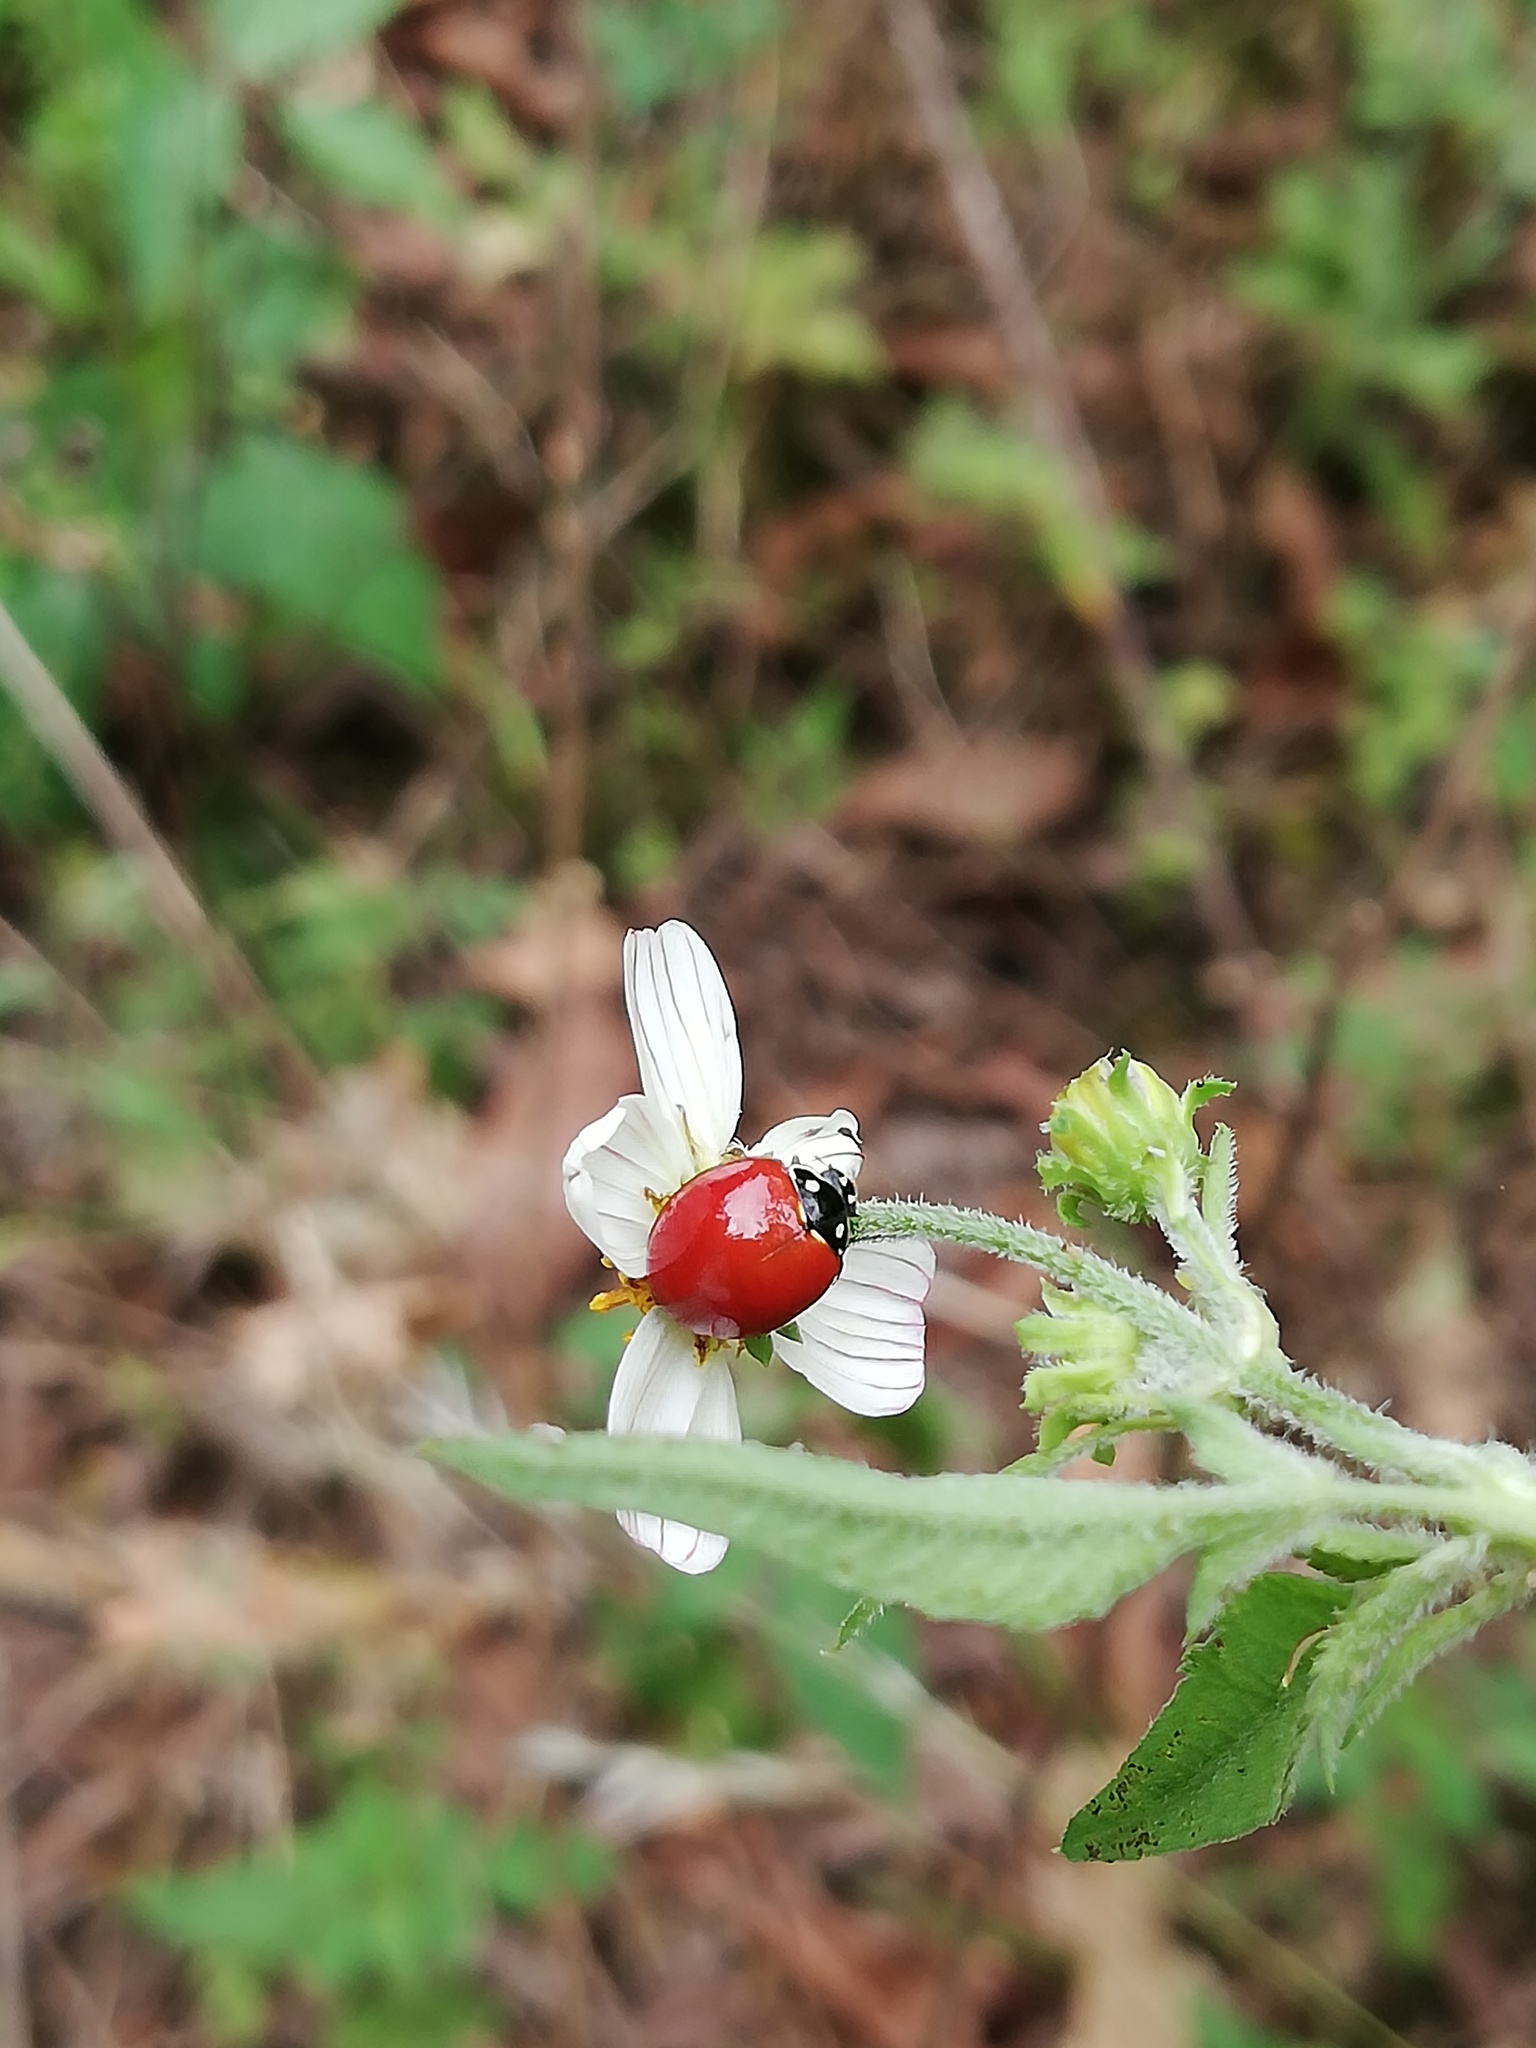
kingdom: Animalia
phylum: Arthropoda
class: Insecta
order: Coleoptera
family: Coccinellidae
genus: Cycloneda
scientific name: Cycloneda sanguinea
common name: Ladybird beetle
